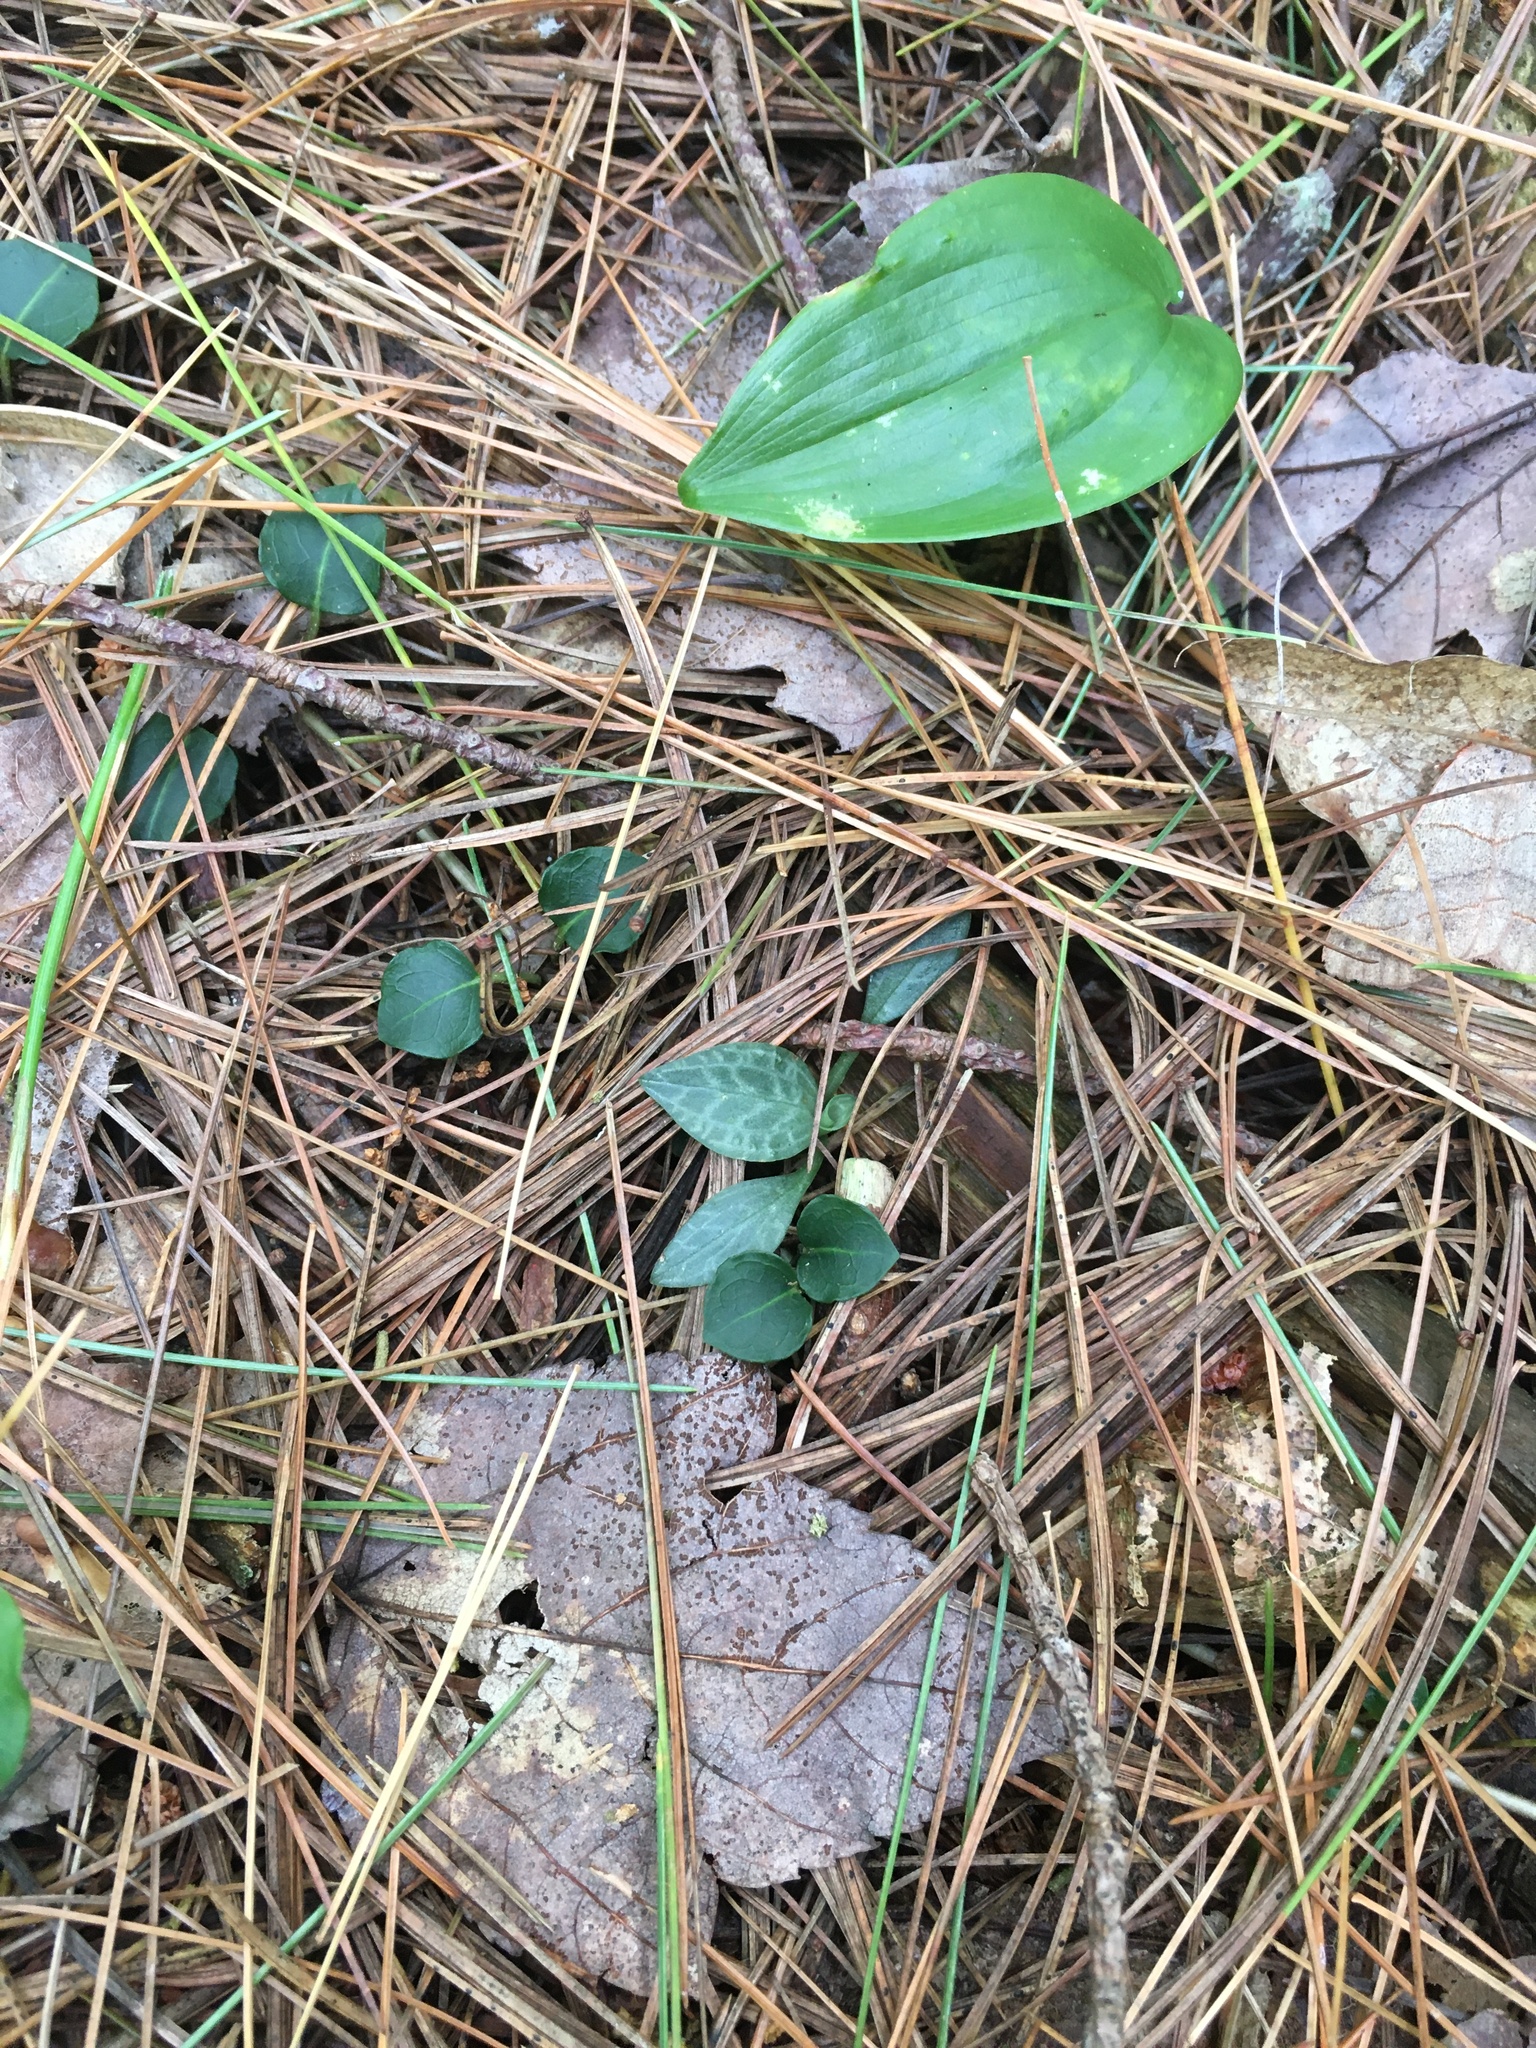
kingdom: Plantae
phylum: Tracheophyta
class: Liliopsida
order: Asparagales
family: Orchidaceae
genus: Goodyera
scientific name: Goodyera tesselata
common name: Checkered rattlesnake-plantain
